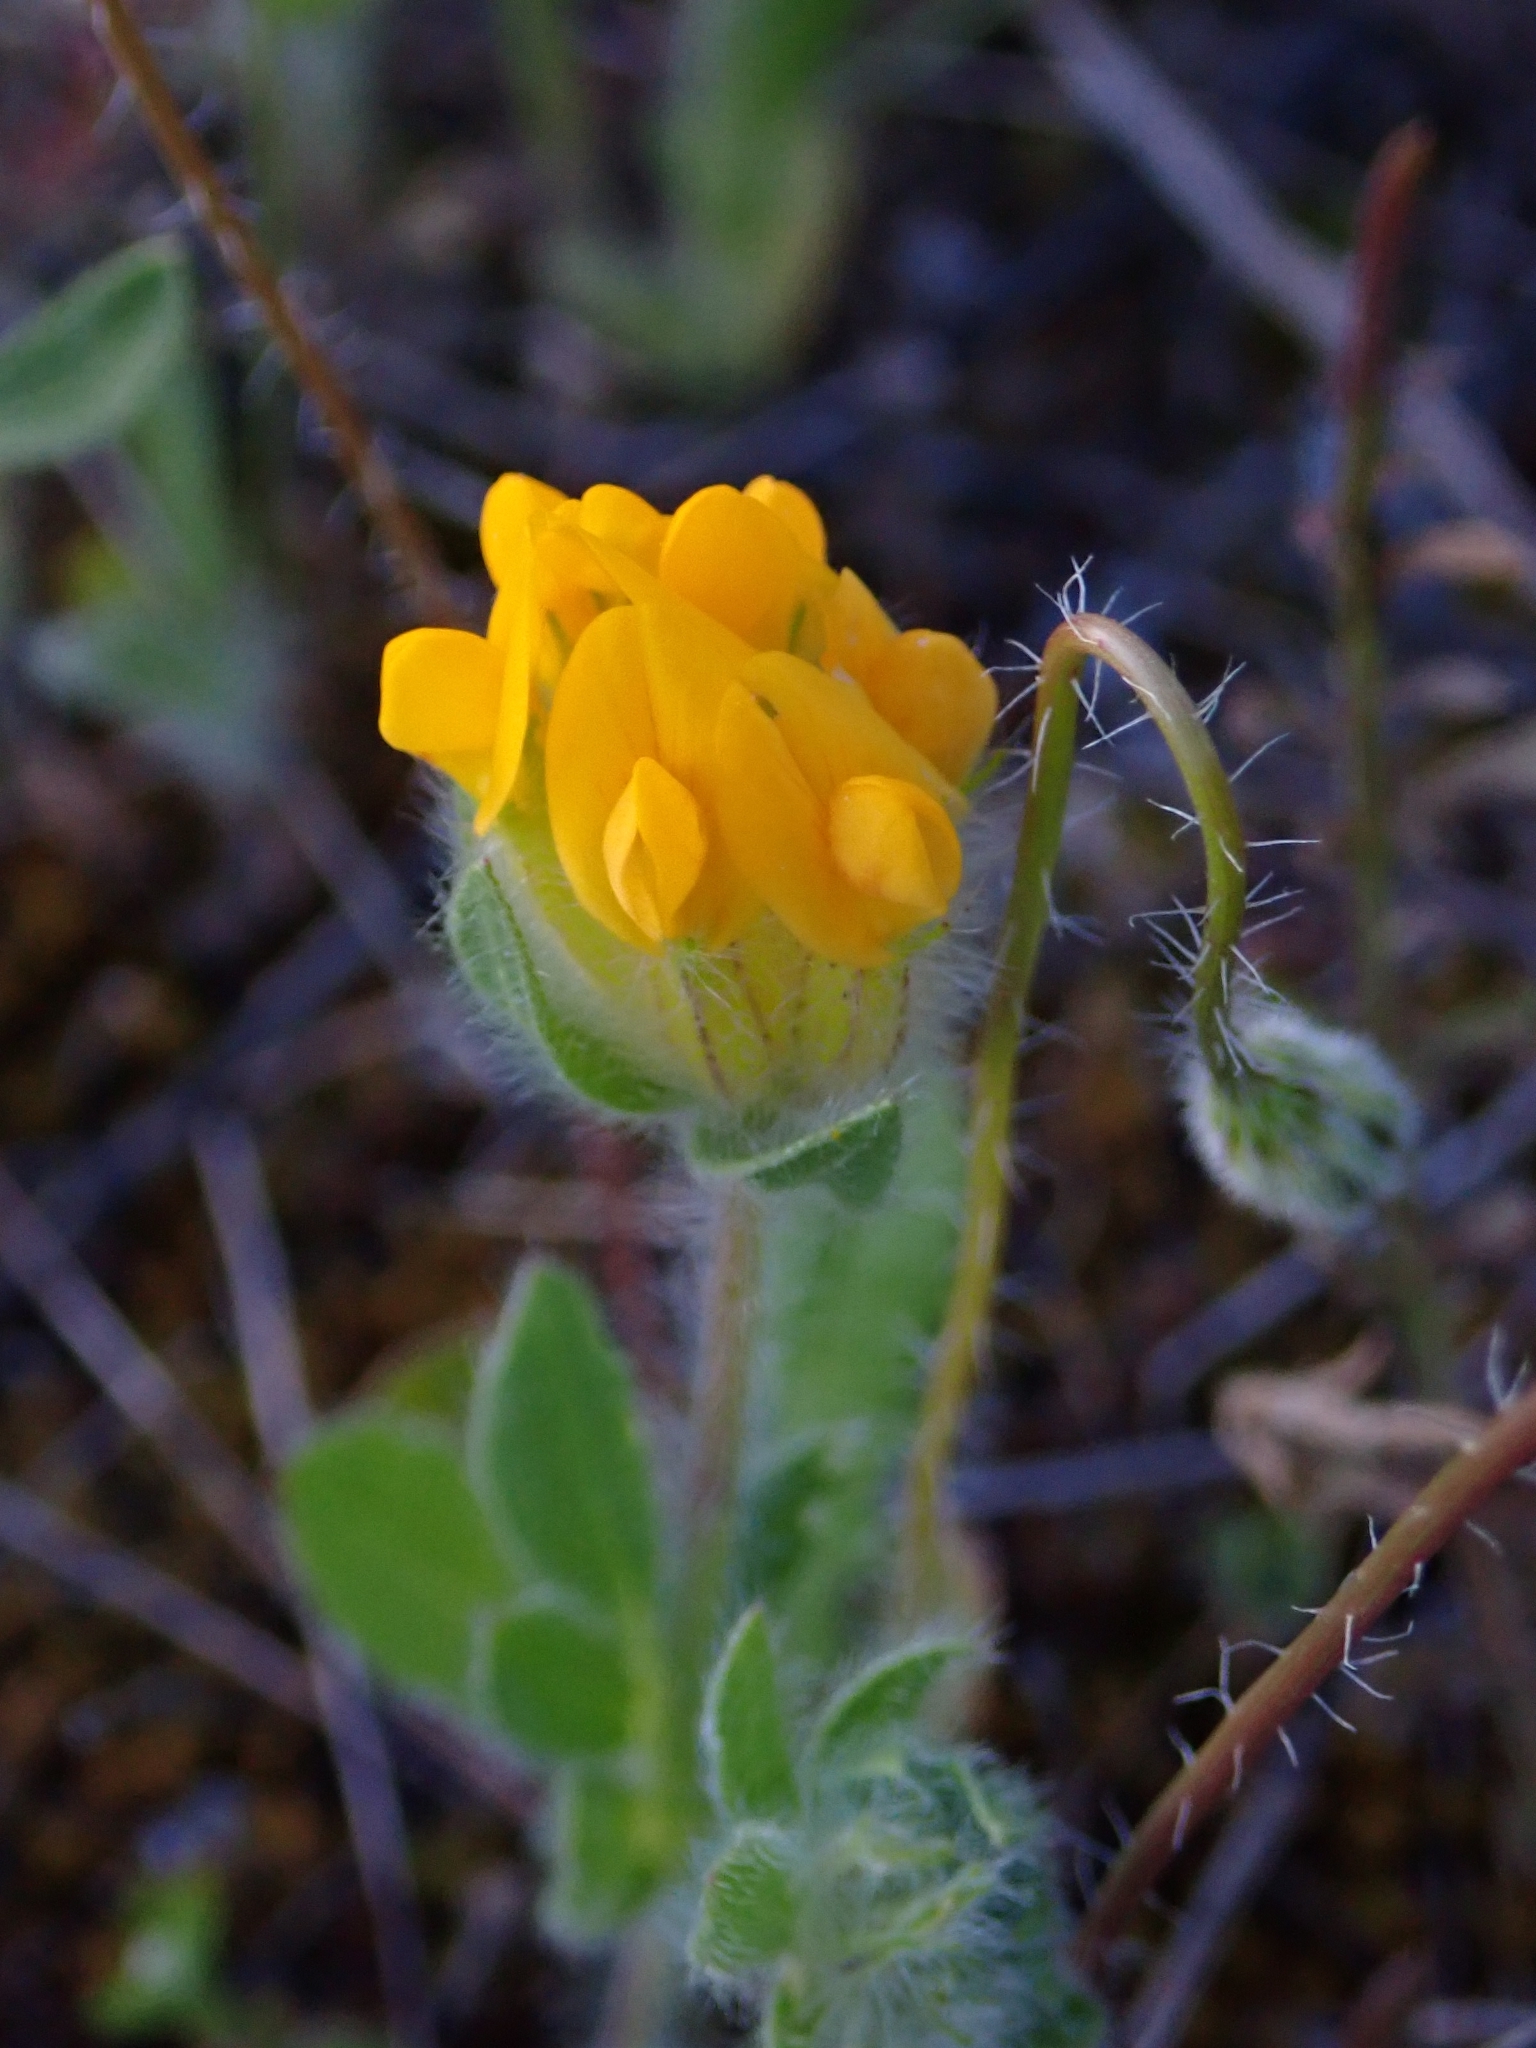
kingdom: Plantae
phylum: Tracheophyta
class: Magnoliopsida
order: Fabales
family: Fabaceae
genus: Anthyllis
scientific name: Anthyllis lotoides
